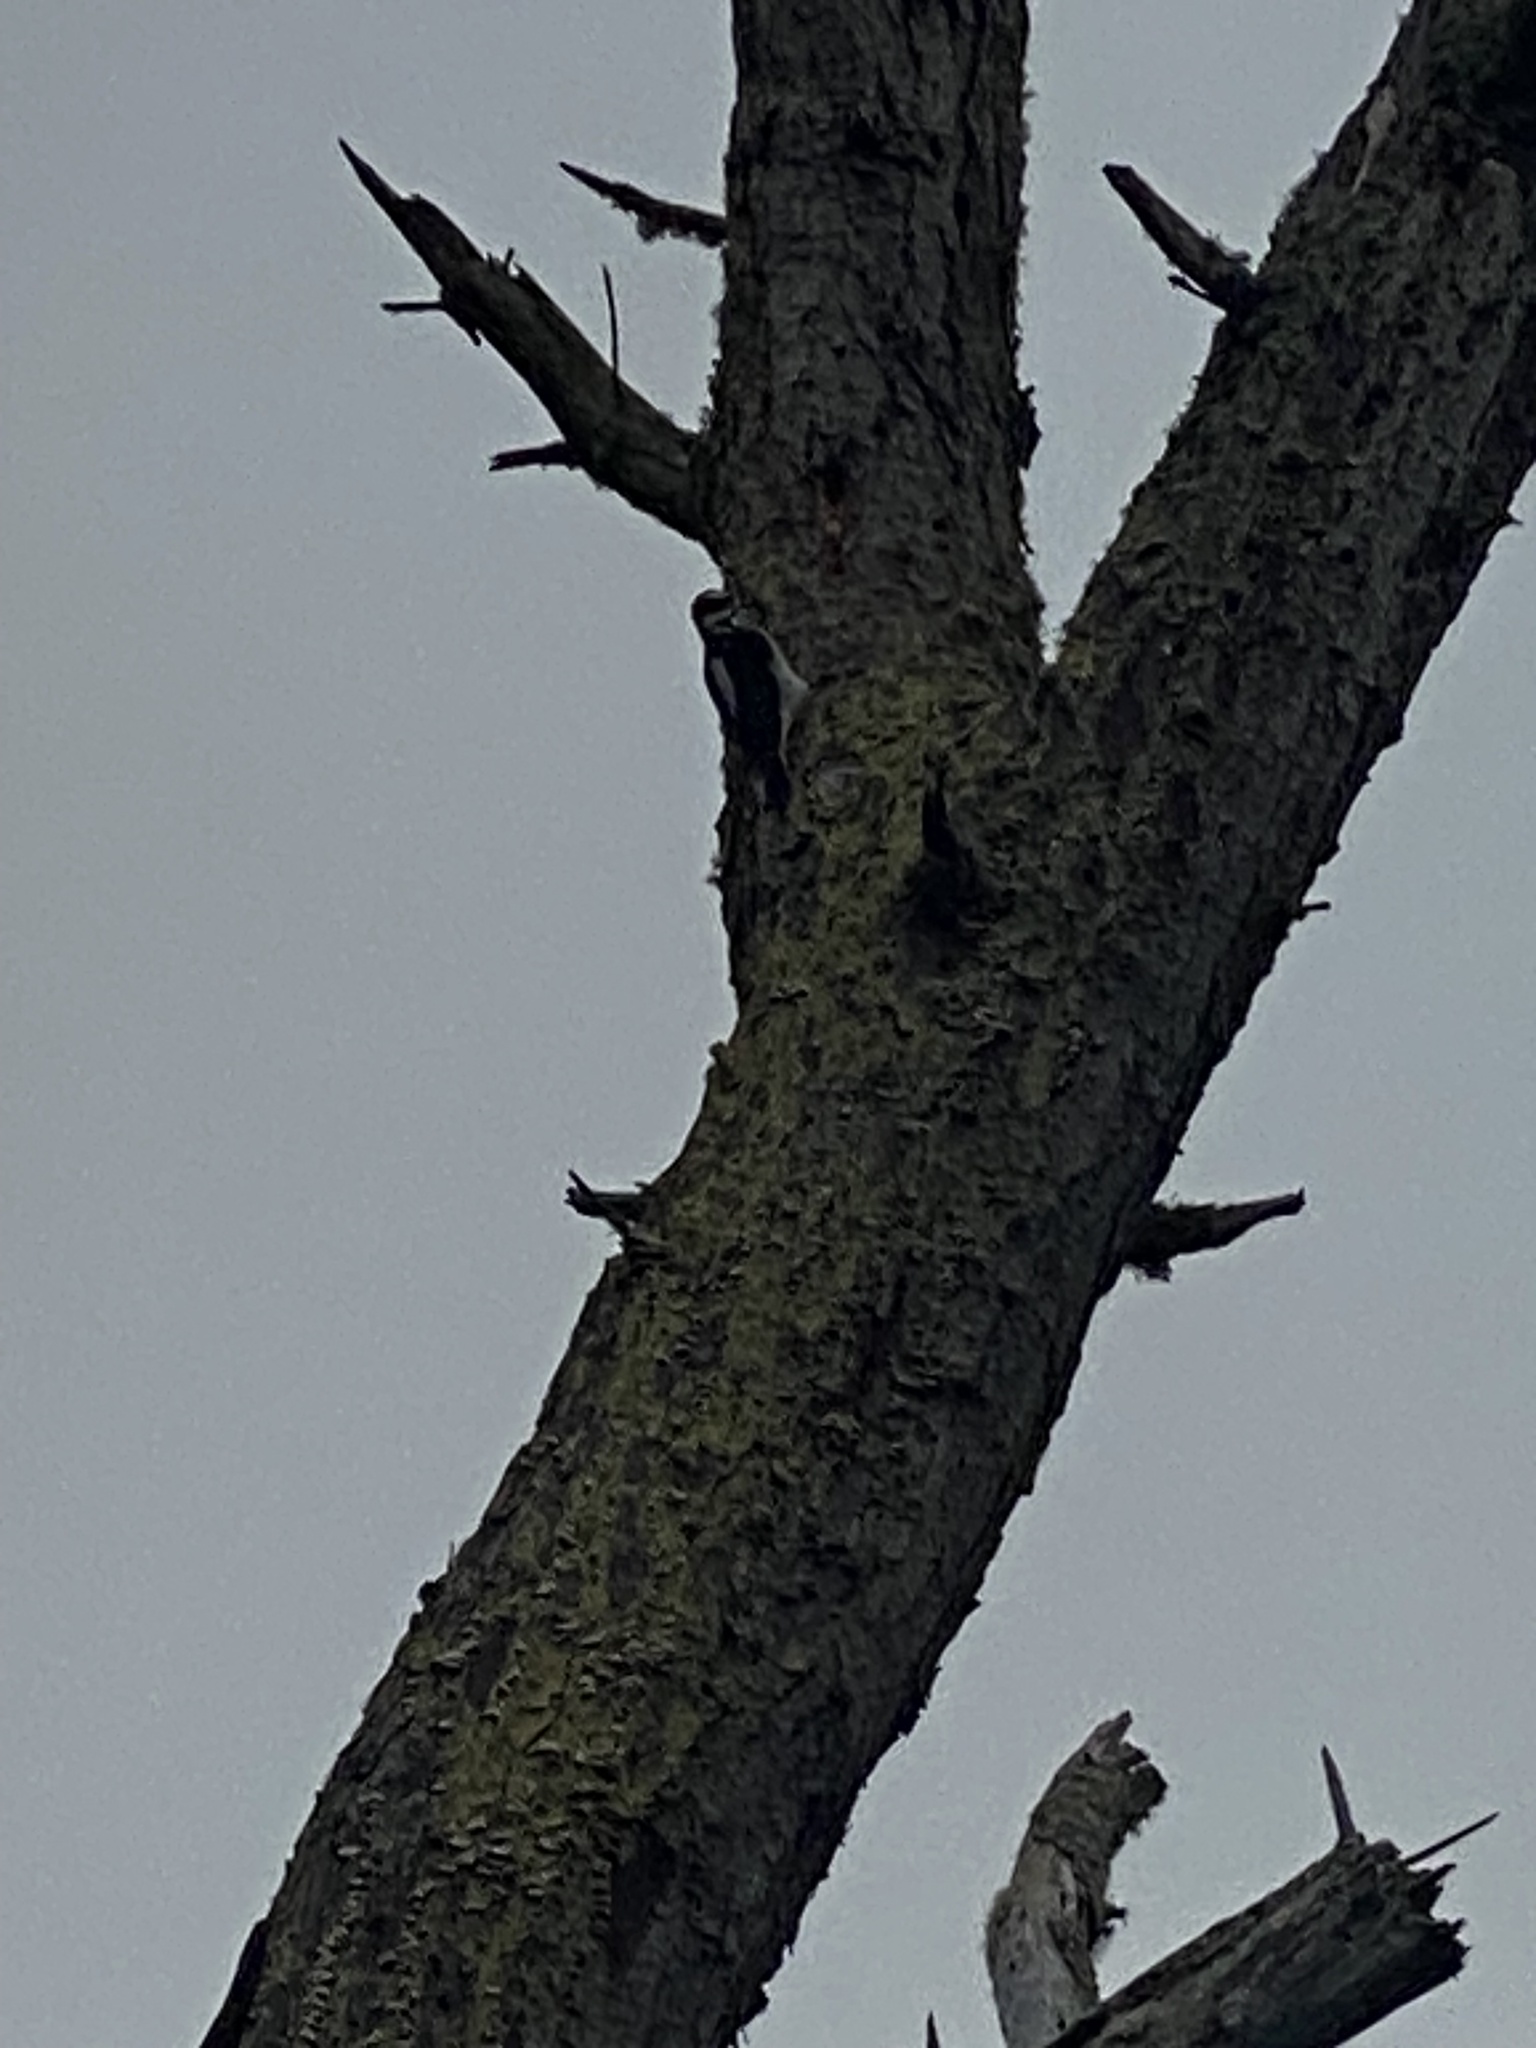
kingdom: Animalia
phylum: Chordata
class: Aves
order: Piciformes
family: Picidae
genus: Leuconotopicus
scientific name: Leuconotopicus villosus
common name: Hairy woodpecker
